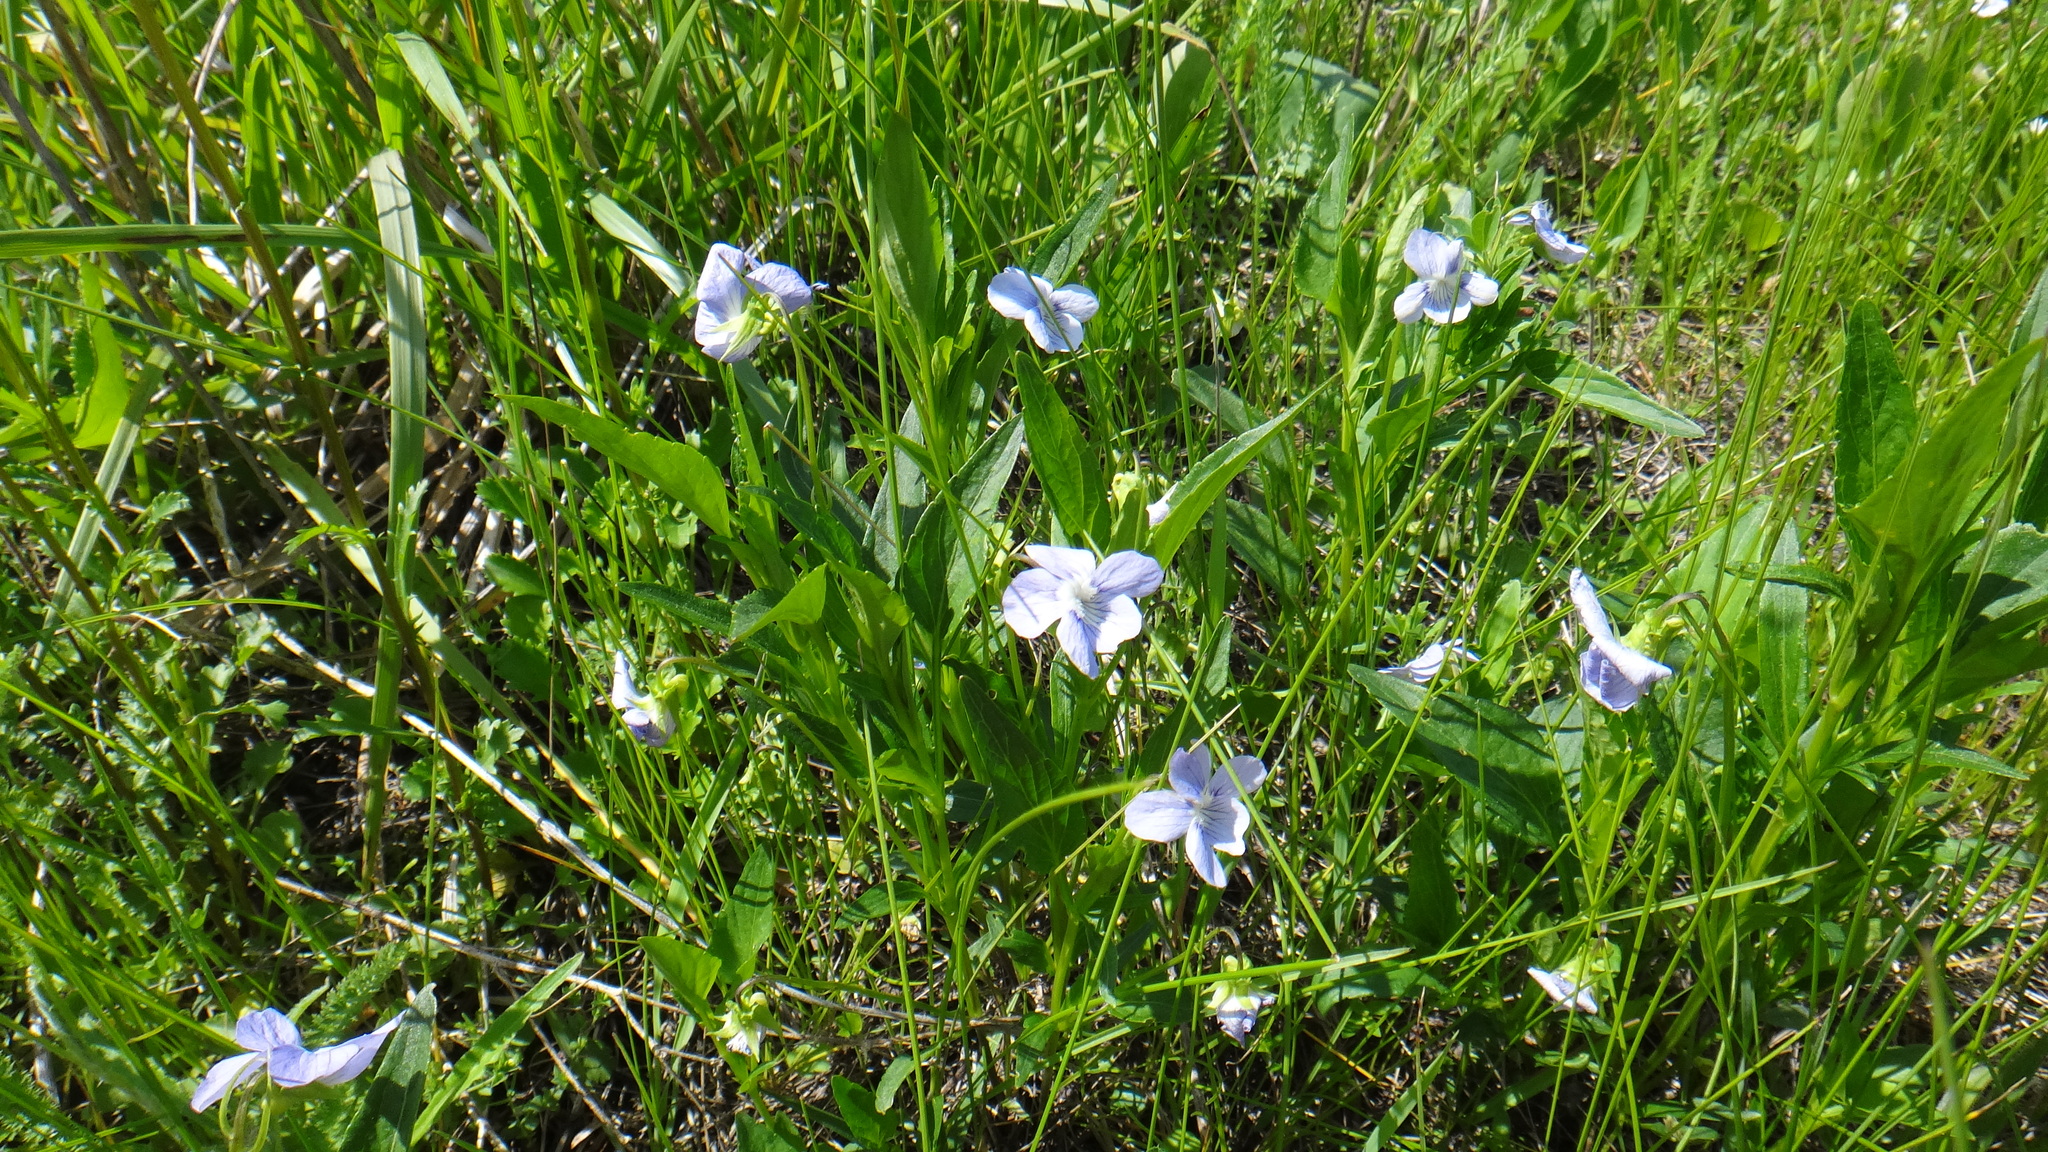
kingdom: Plantae
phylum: Tracheophyta
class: Magnoliopsida
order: Malpighiales
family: Violaceae
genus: Viola
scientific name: Viola elatior
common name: Tall violet
